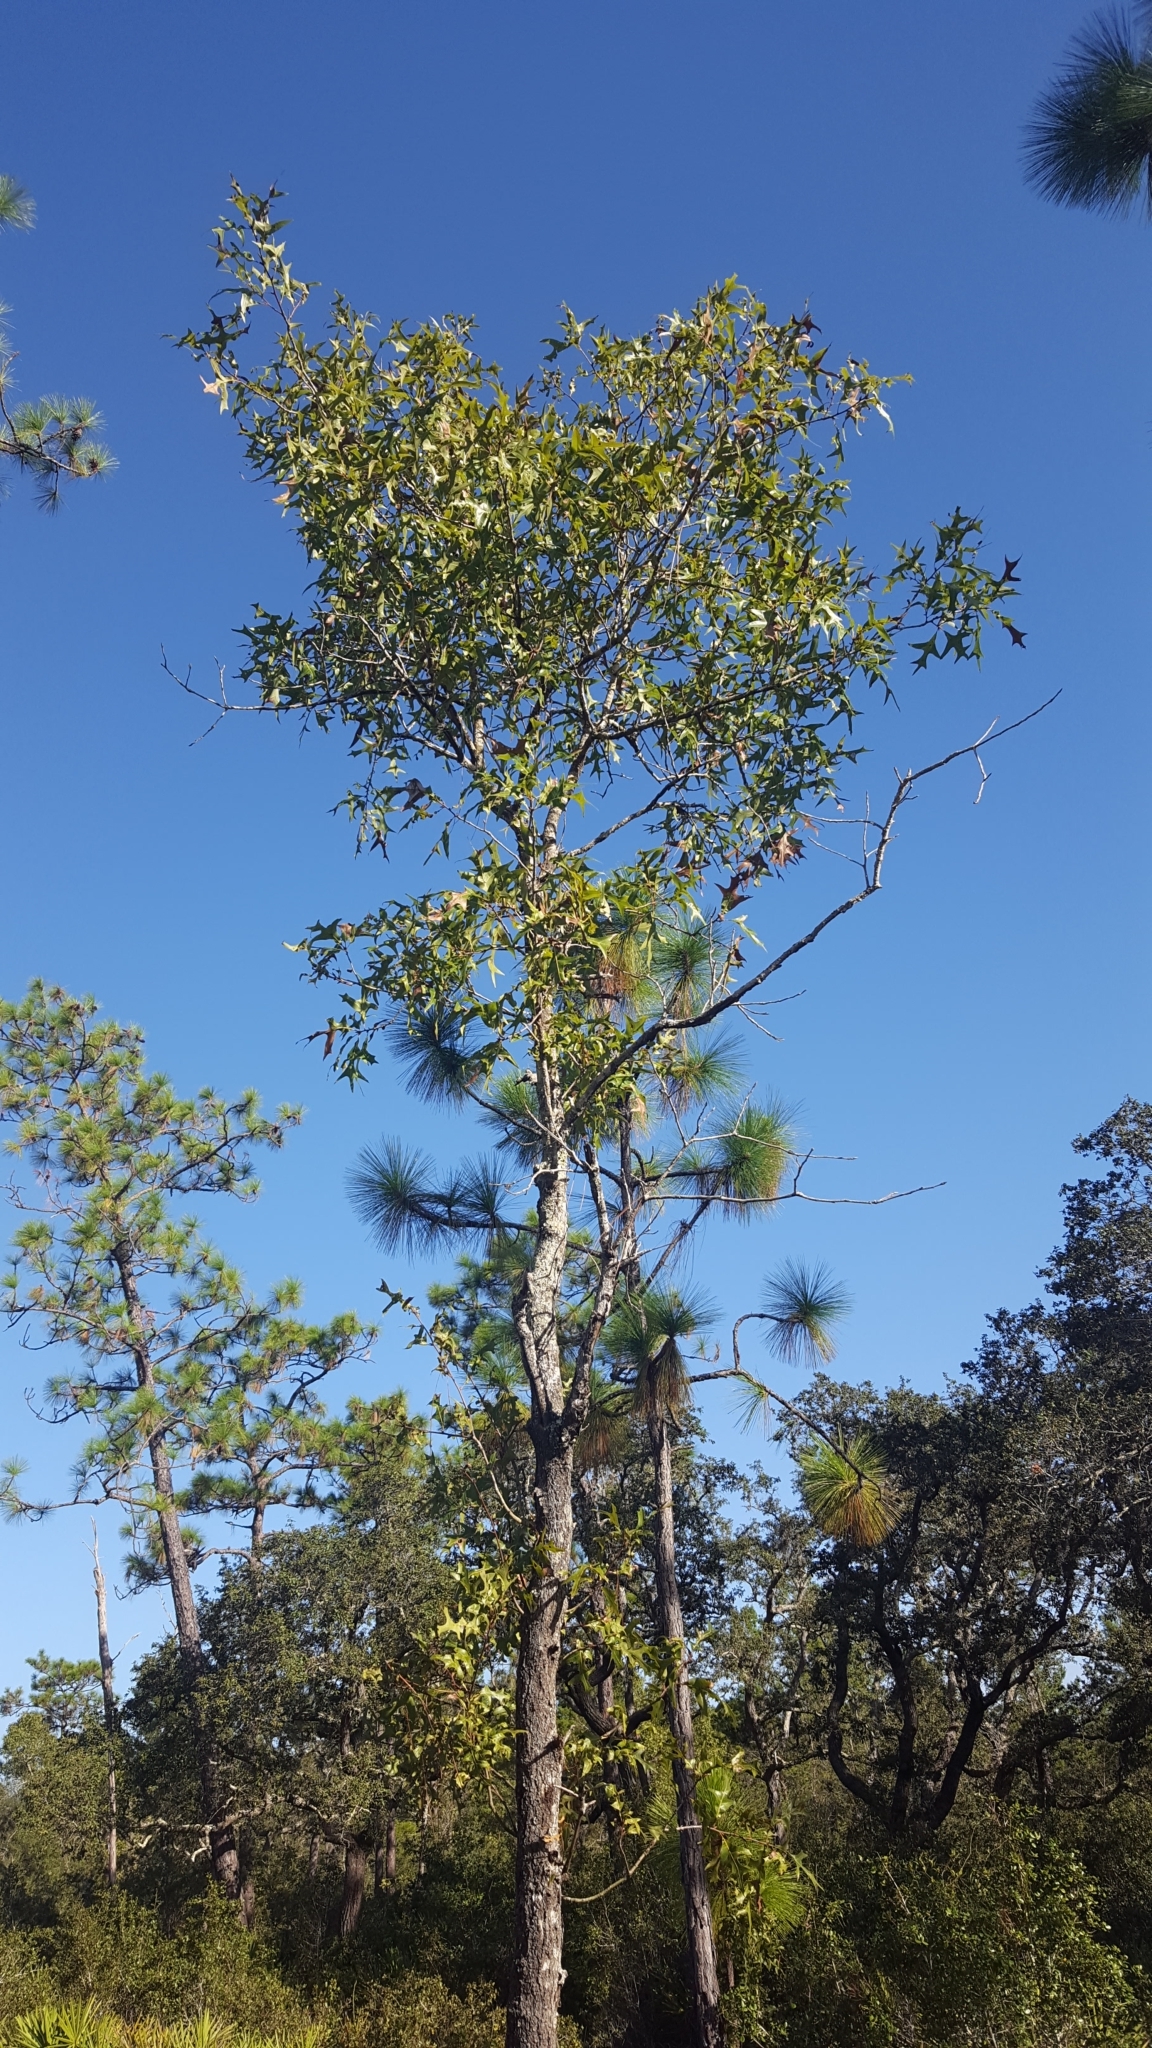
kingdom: Plantae
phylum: Tracheophyta
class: Magnoliopsida
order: Fagales
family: Fagaceae
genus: Quercus
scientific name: Quercus laevis
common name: Turkey oak
